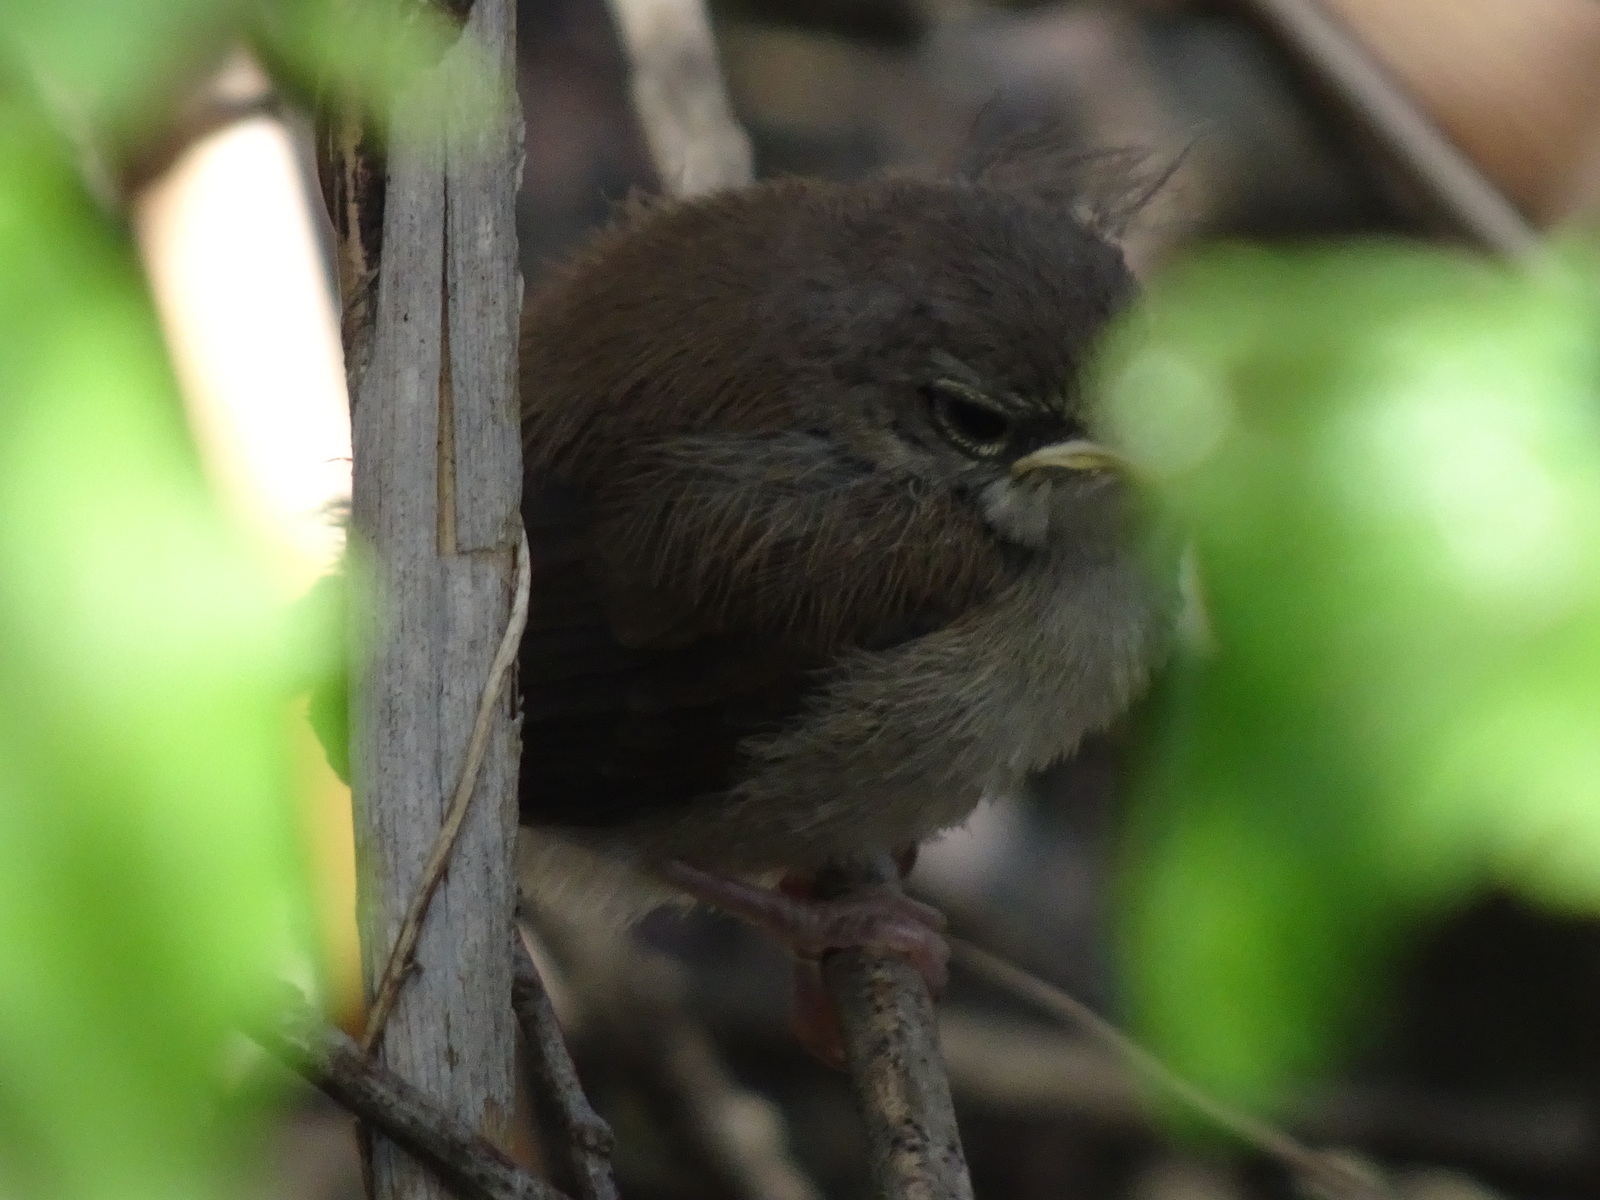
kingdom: Animalia
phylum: Chordata
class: Aves
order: Passeriformes
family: Cettiidae
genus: Cettia
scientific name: Cettia cetti
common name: Cetti's warbler
